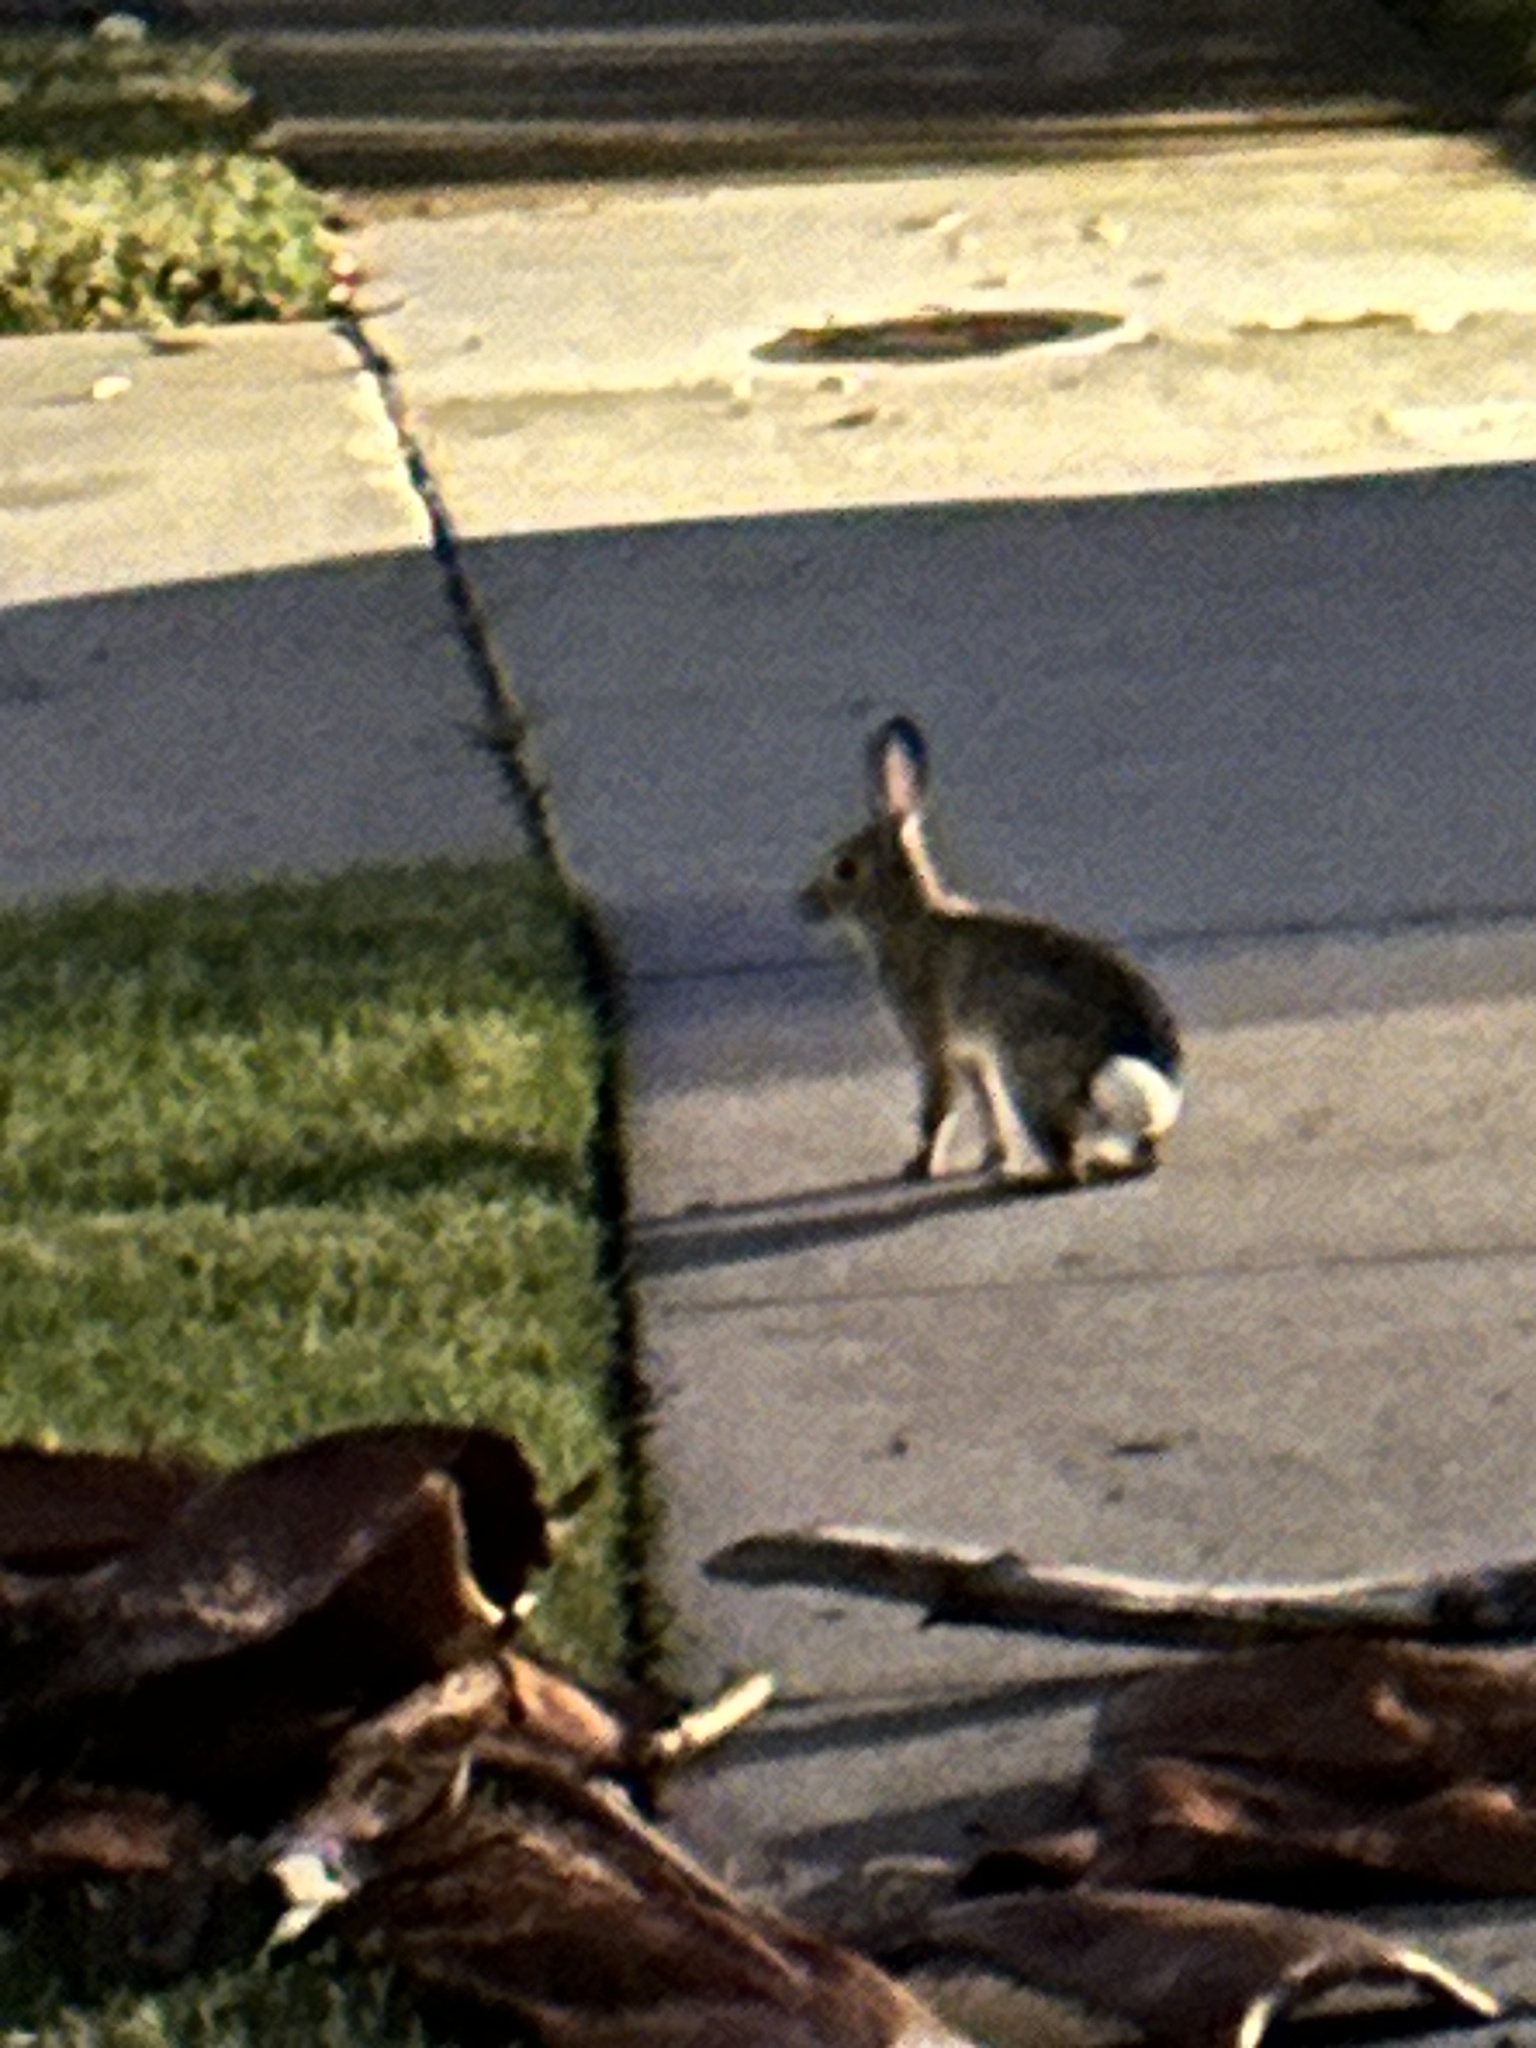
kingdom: Animalia
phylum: Chordata
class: Mammalia
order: Lagomorpha
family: Leporidae
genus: Sylvilagus
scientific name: Sylvilagus audubonii
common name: Desert cottontail
